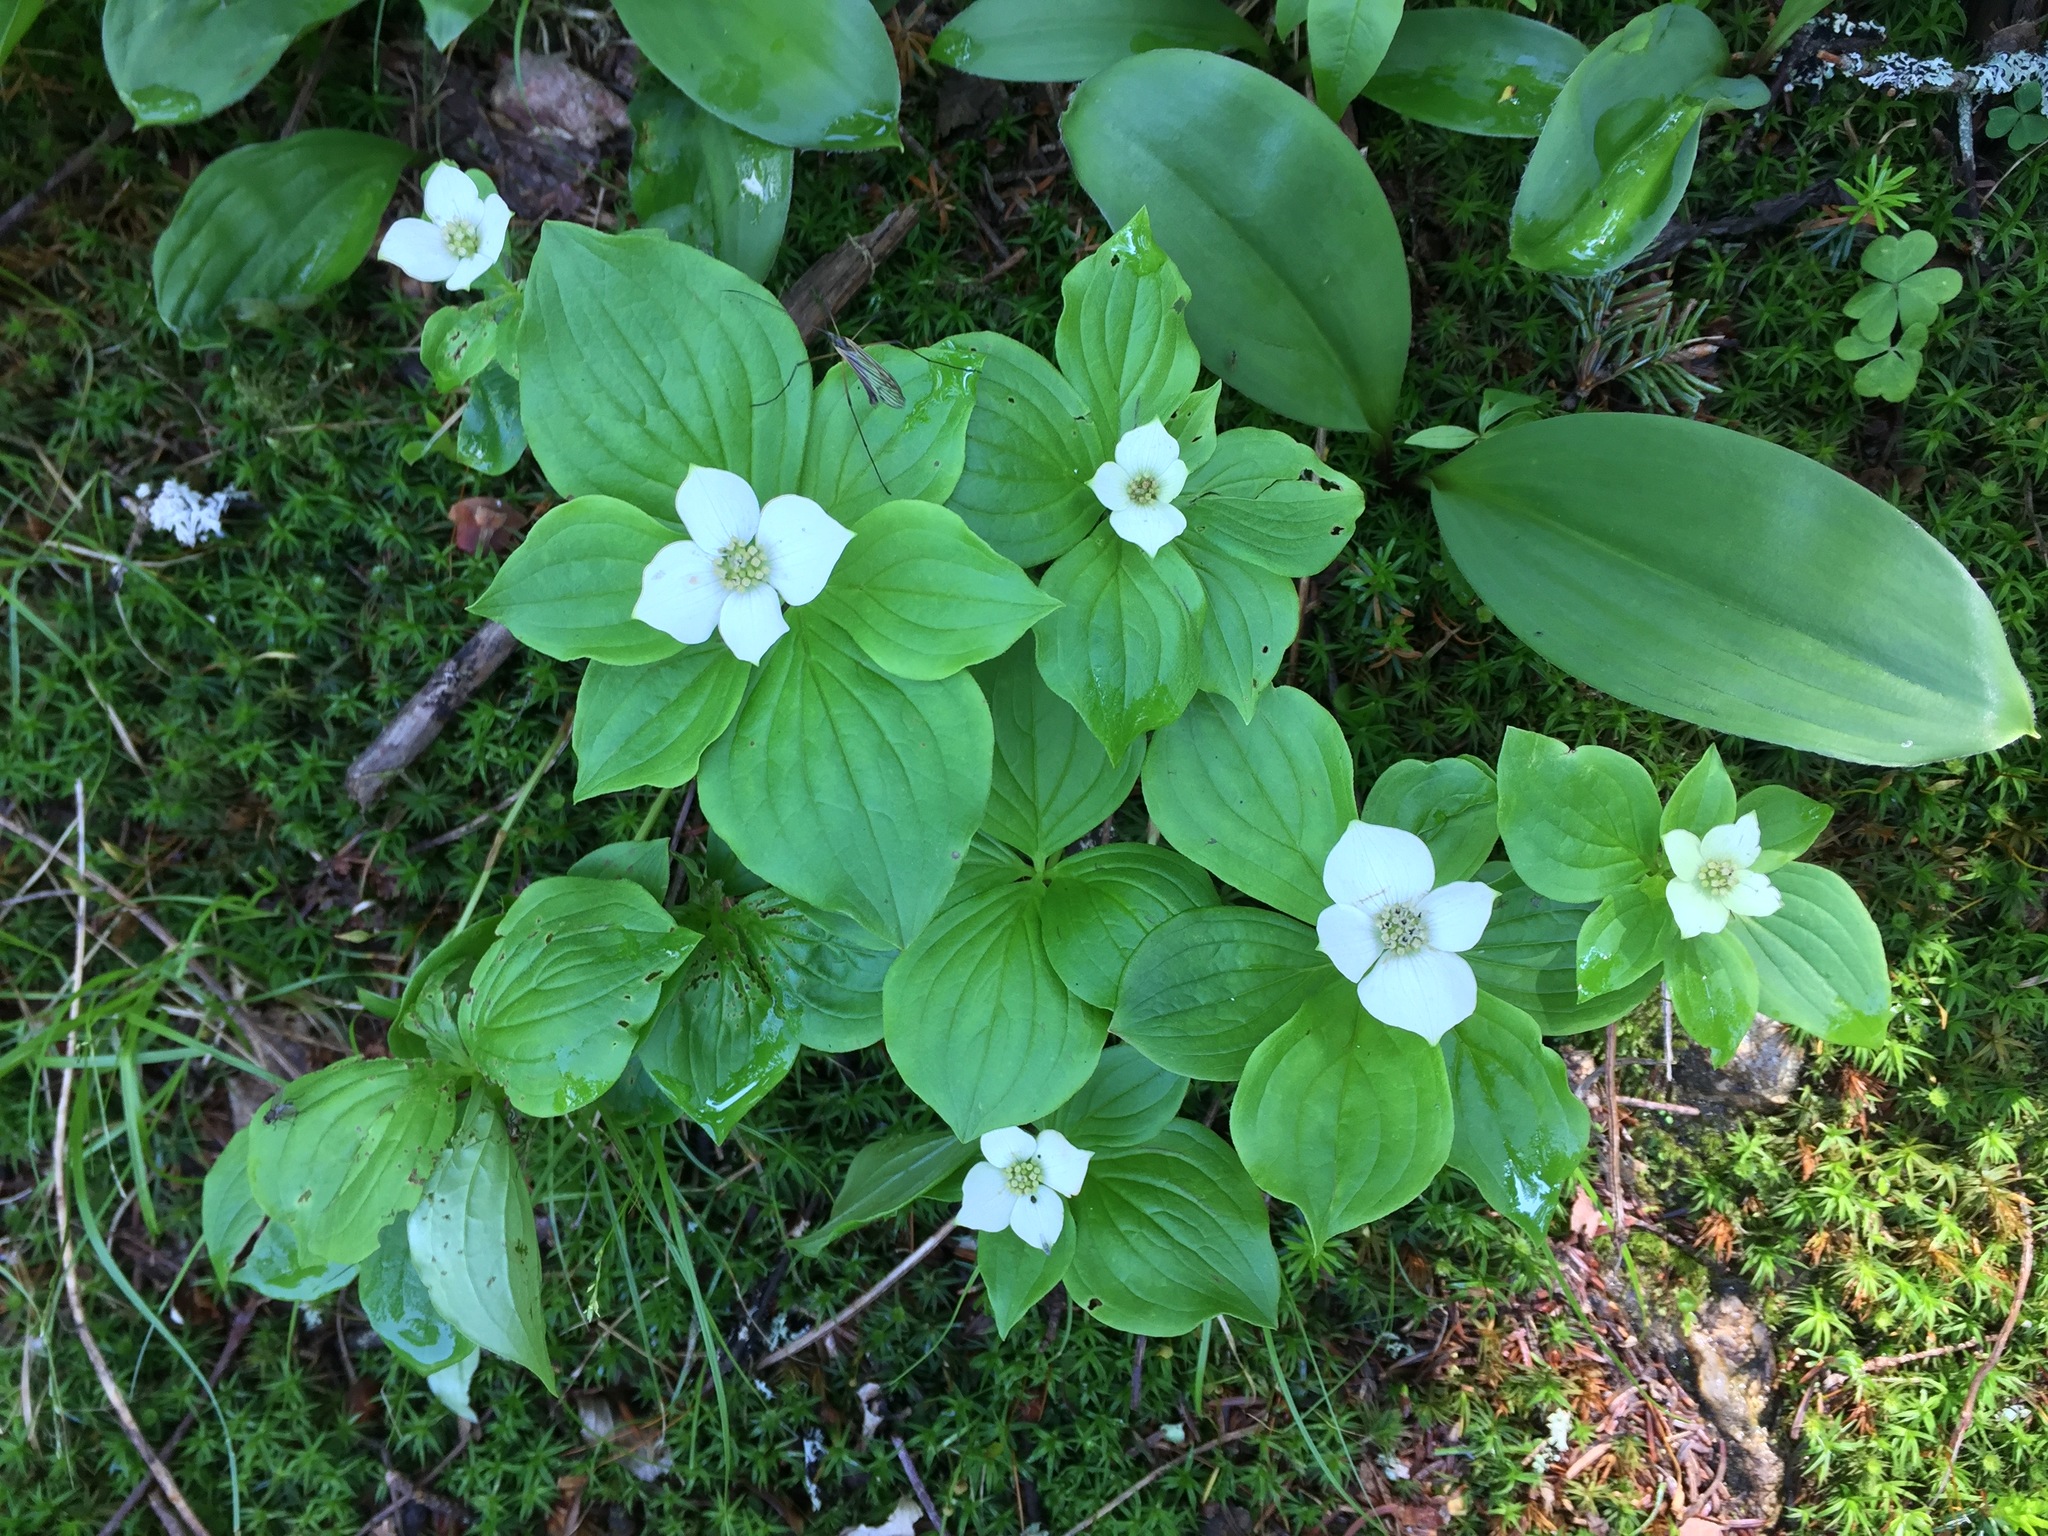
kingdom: Plantae
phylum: Tracheophyta
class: Magnoliopsida
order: Cornales
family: Cornaceae
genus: Cornus
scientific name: Cornus canadensis
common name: Creeping dogwood
